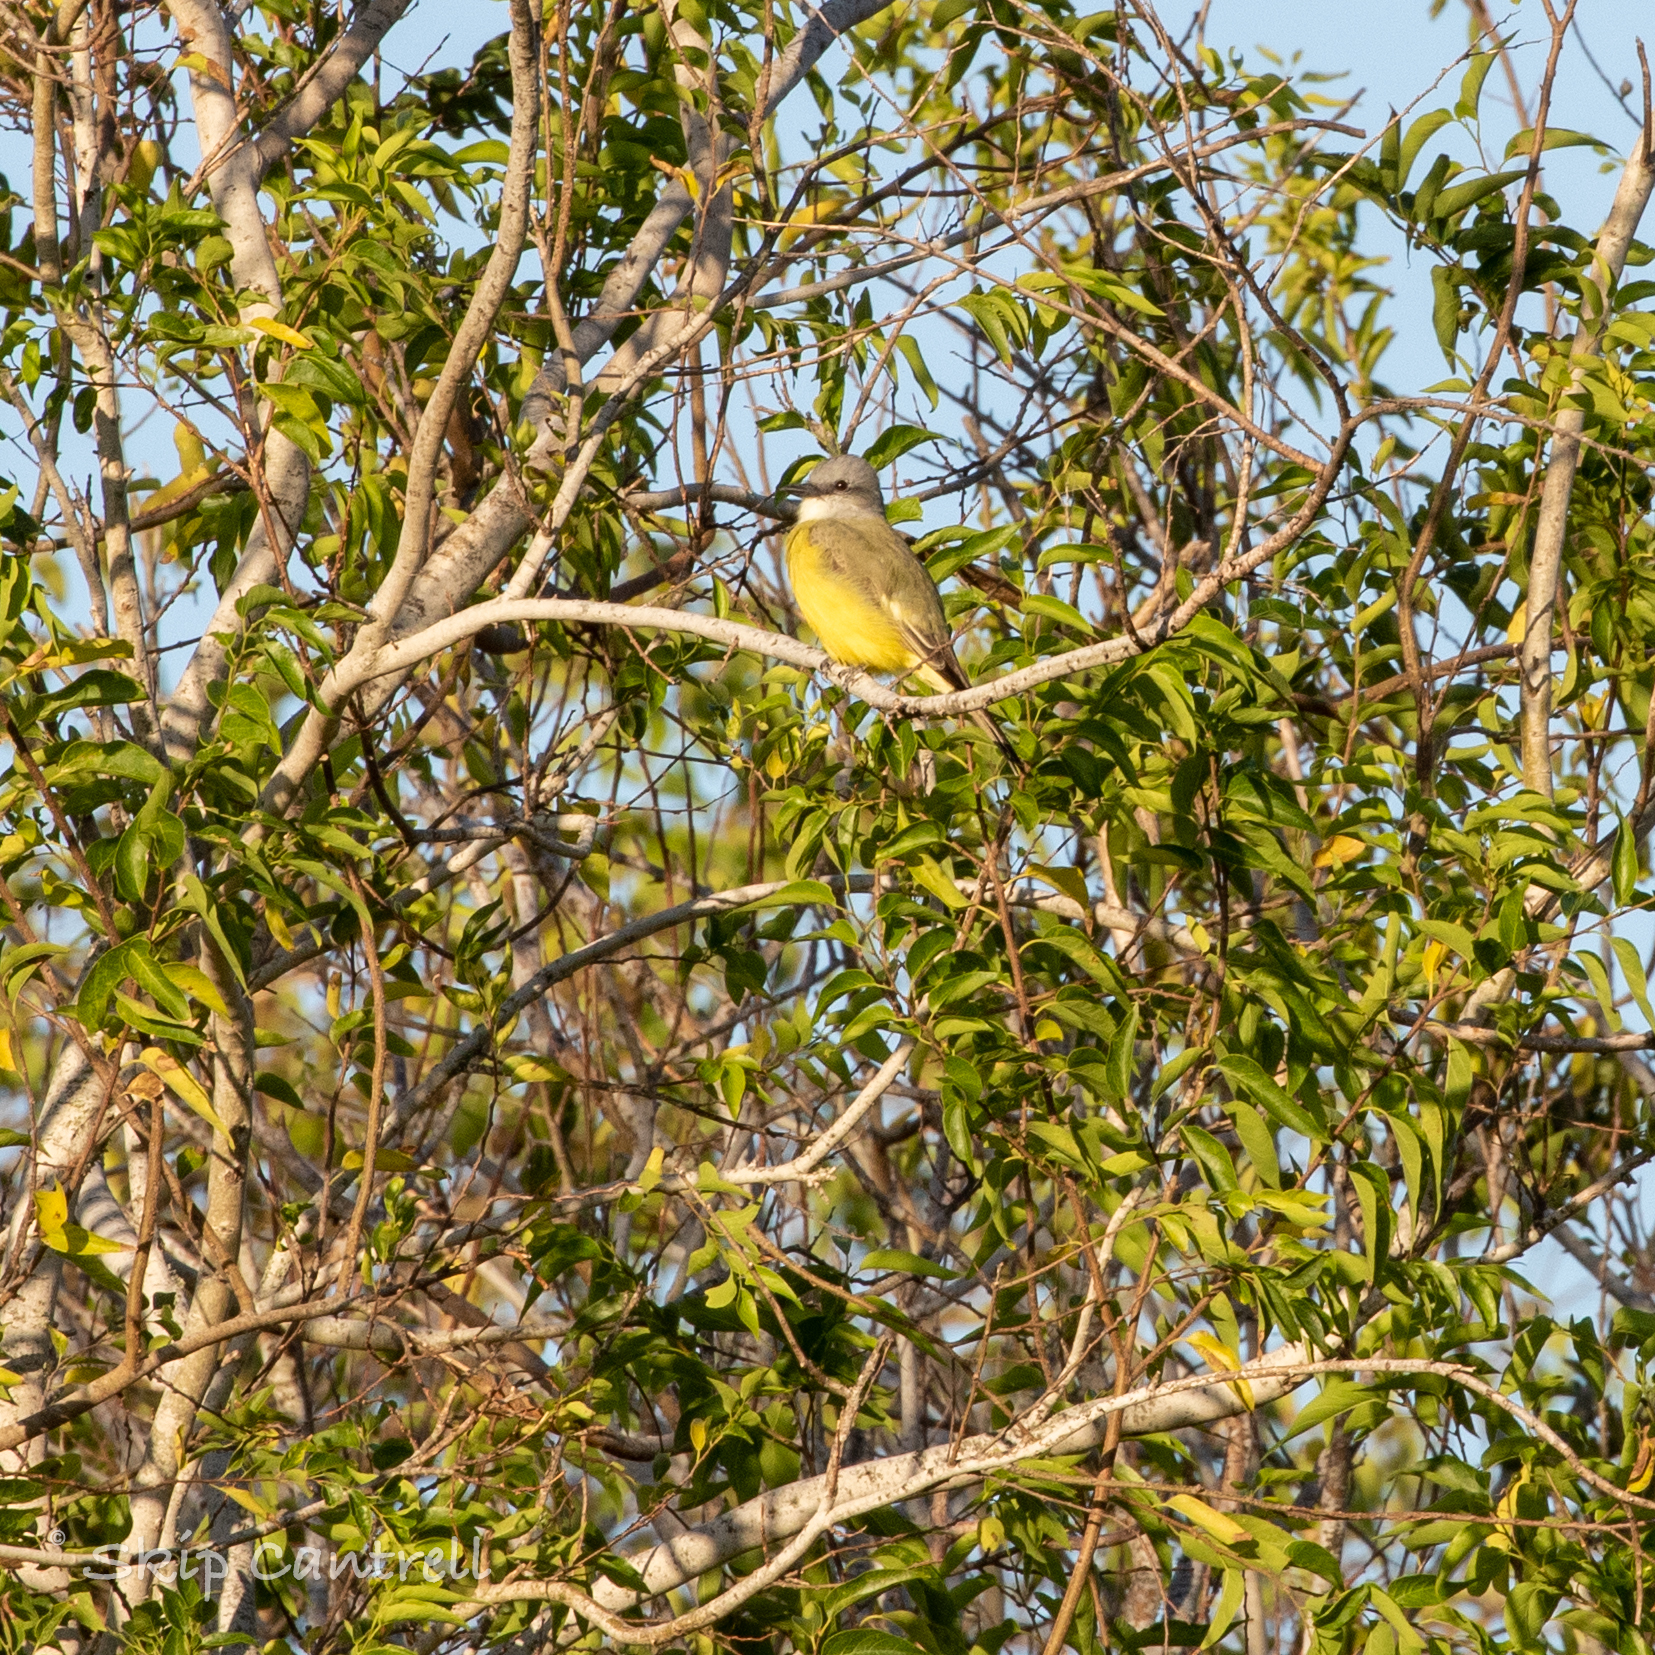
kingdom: Animalia
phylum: Chordata
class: Aves
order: Passeriformes
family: Tyrannidae
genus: Tyrannus
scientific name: Tyrannus couchii
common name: Couch's kingbird
